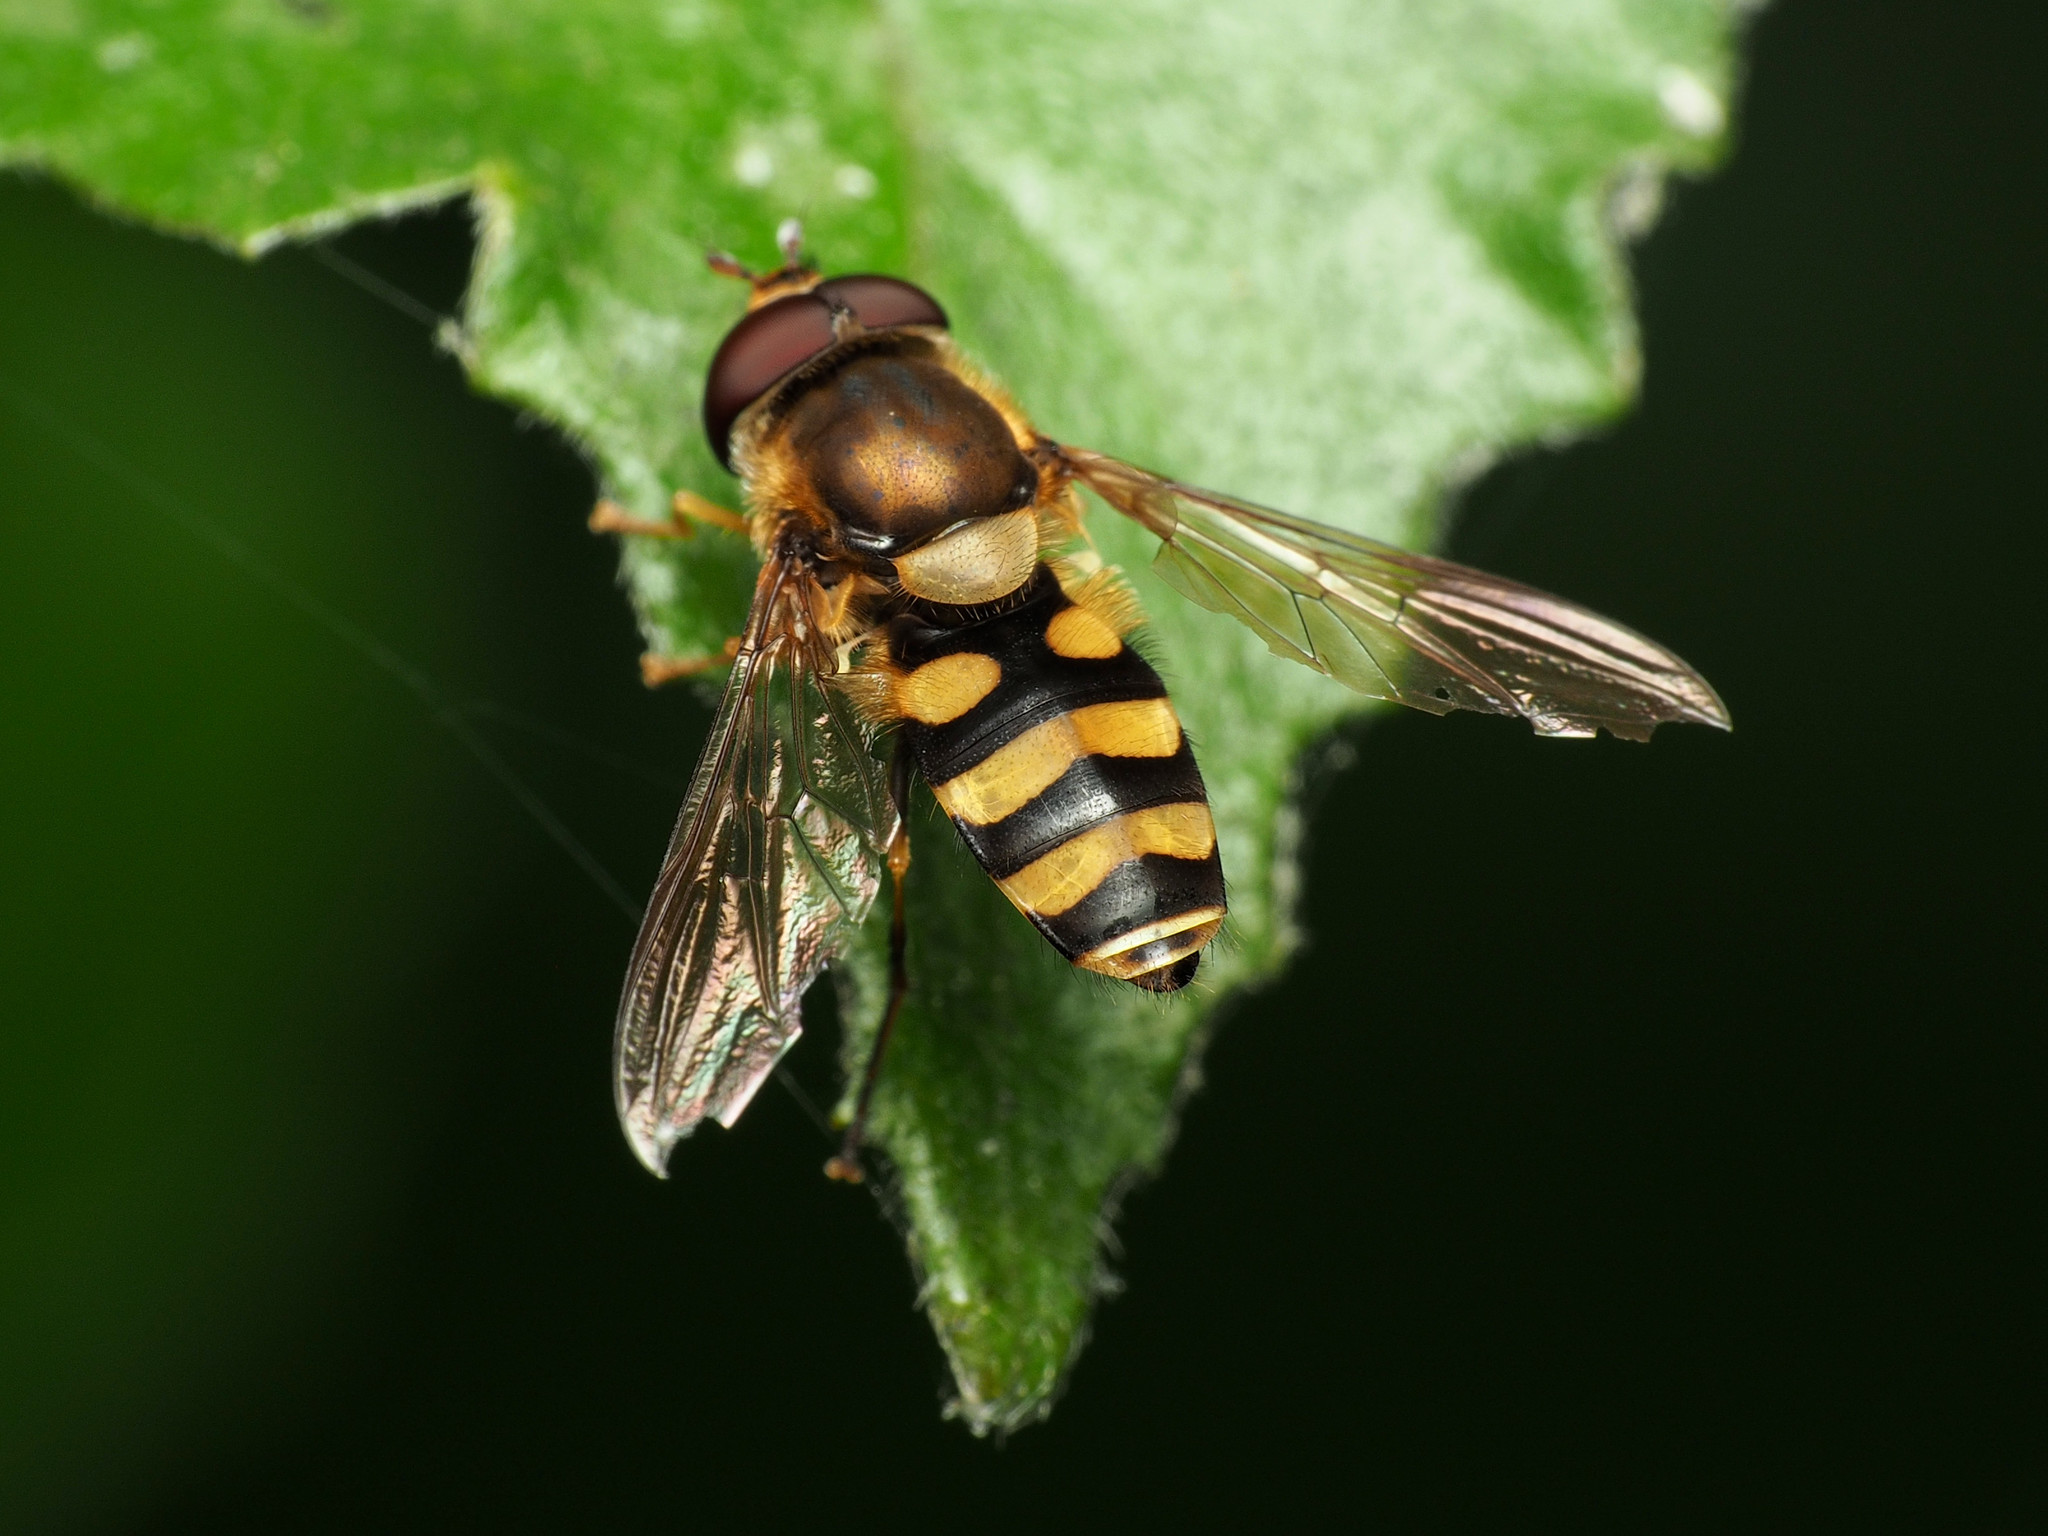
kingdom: Animalia
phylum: Arthropoda
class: Insecta
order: Diptera
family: Syrphidae
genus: Syrphus
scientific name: Syrphus
